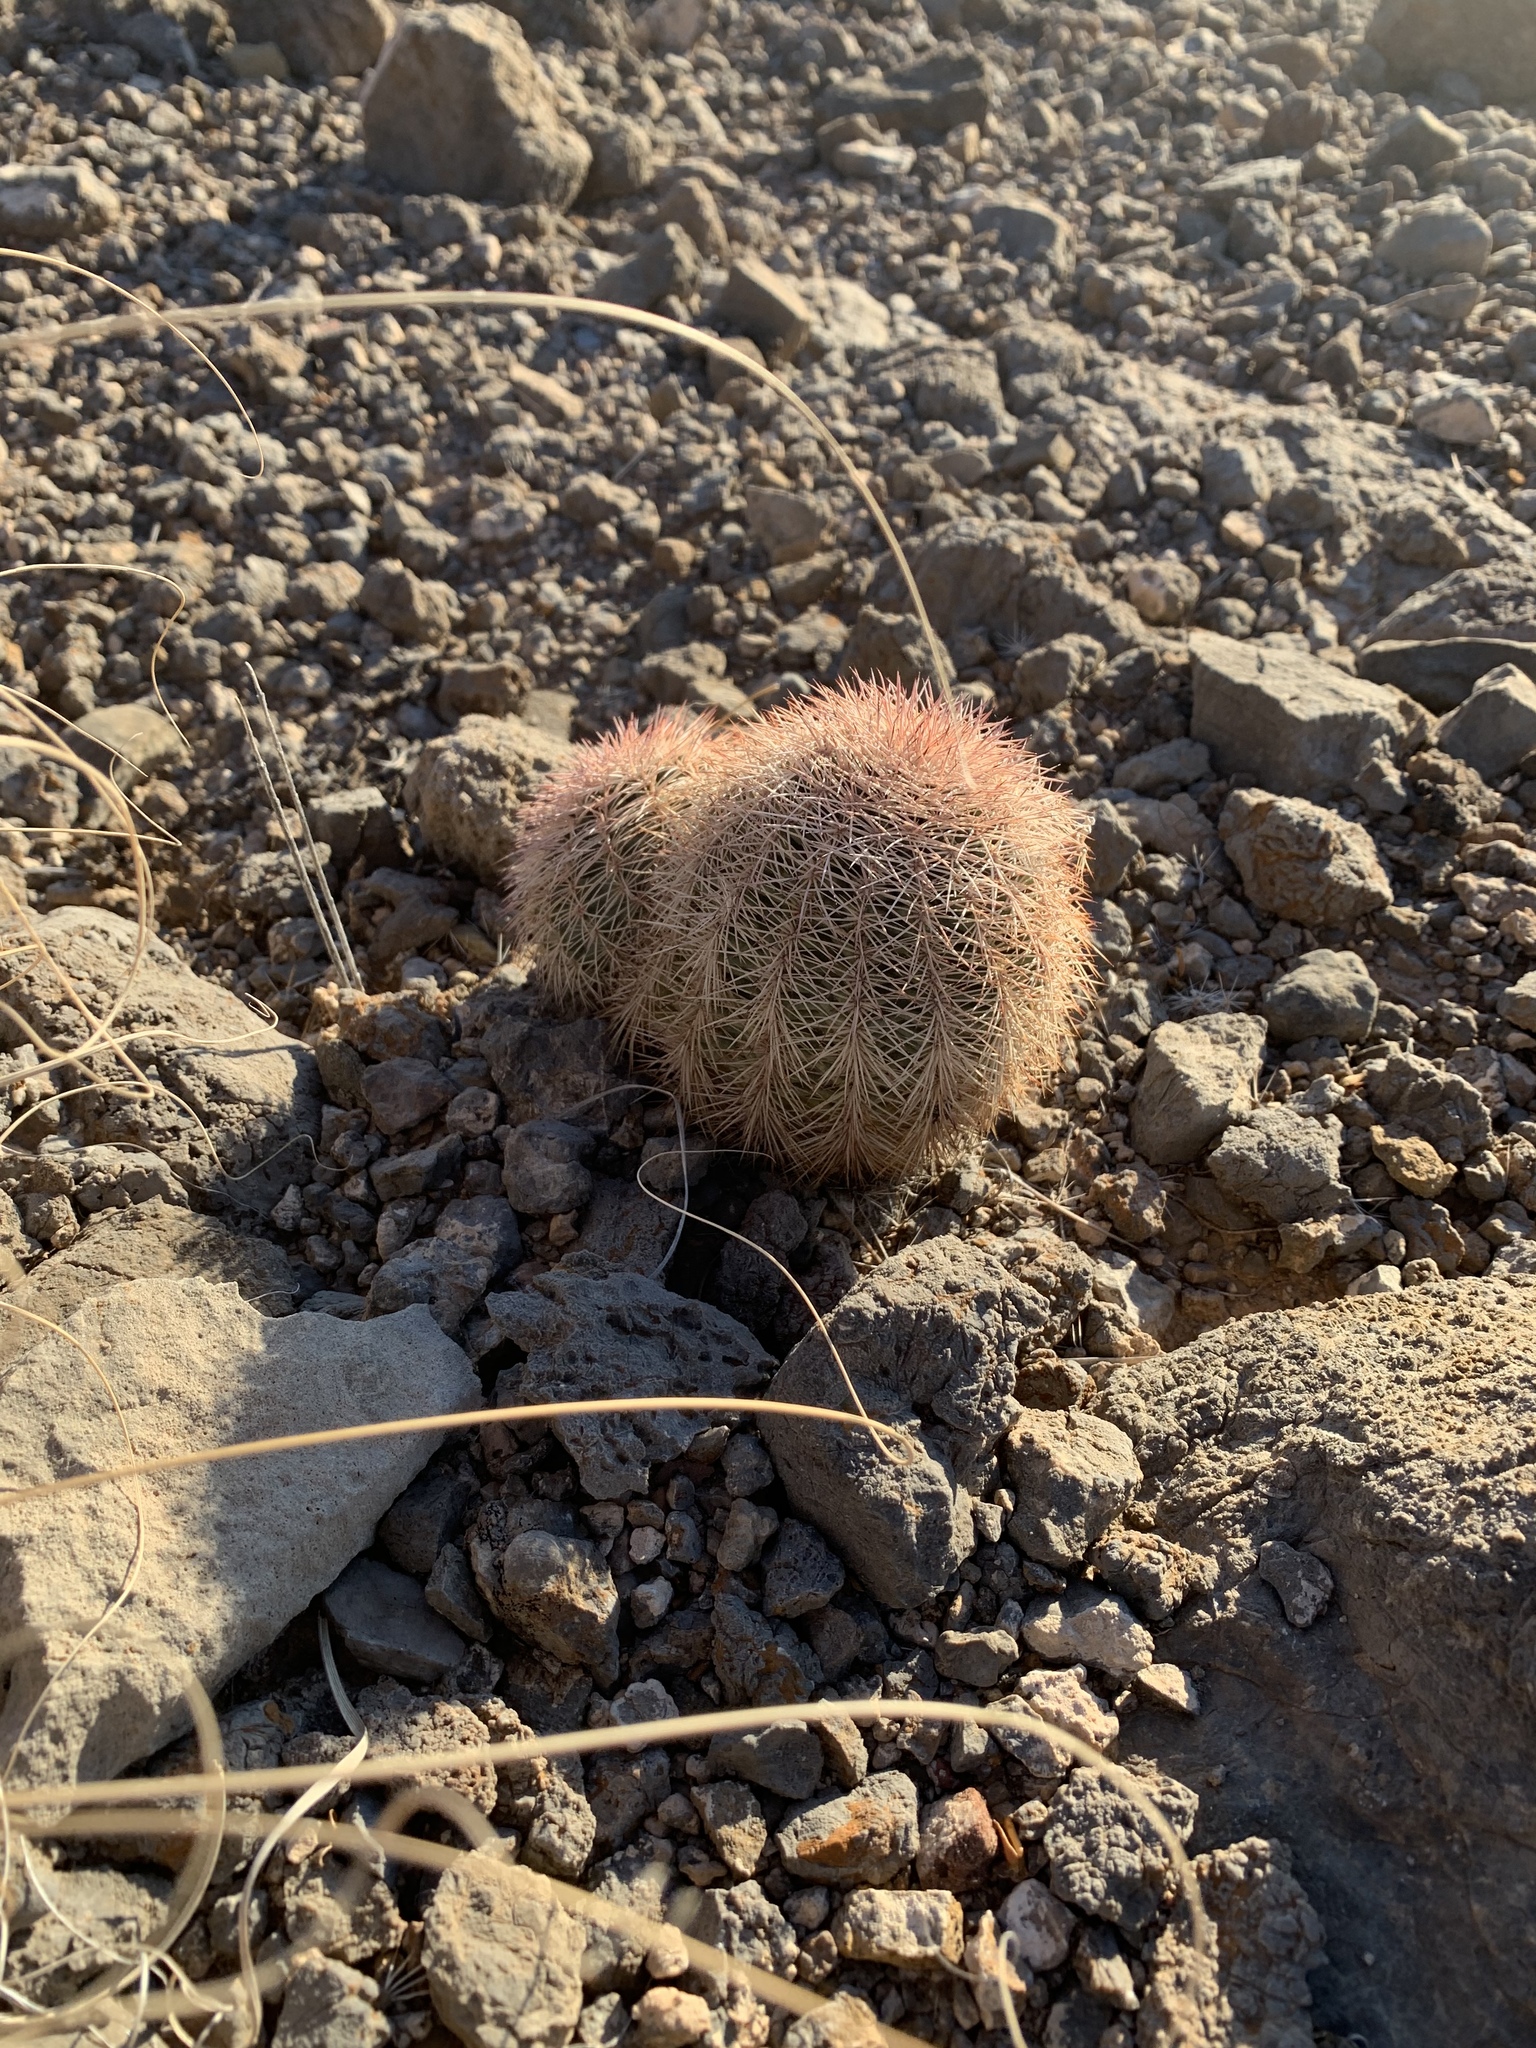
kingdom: Plantae
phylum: Tracheophyta
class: Magnoliopsida
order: Caryophyllales
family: Cactaceae
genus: Echinocereus
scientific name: Echinocereus dasyacanthus
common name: Spiny hedgehog cactus
